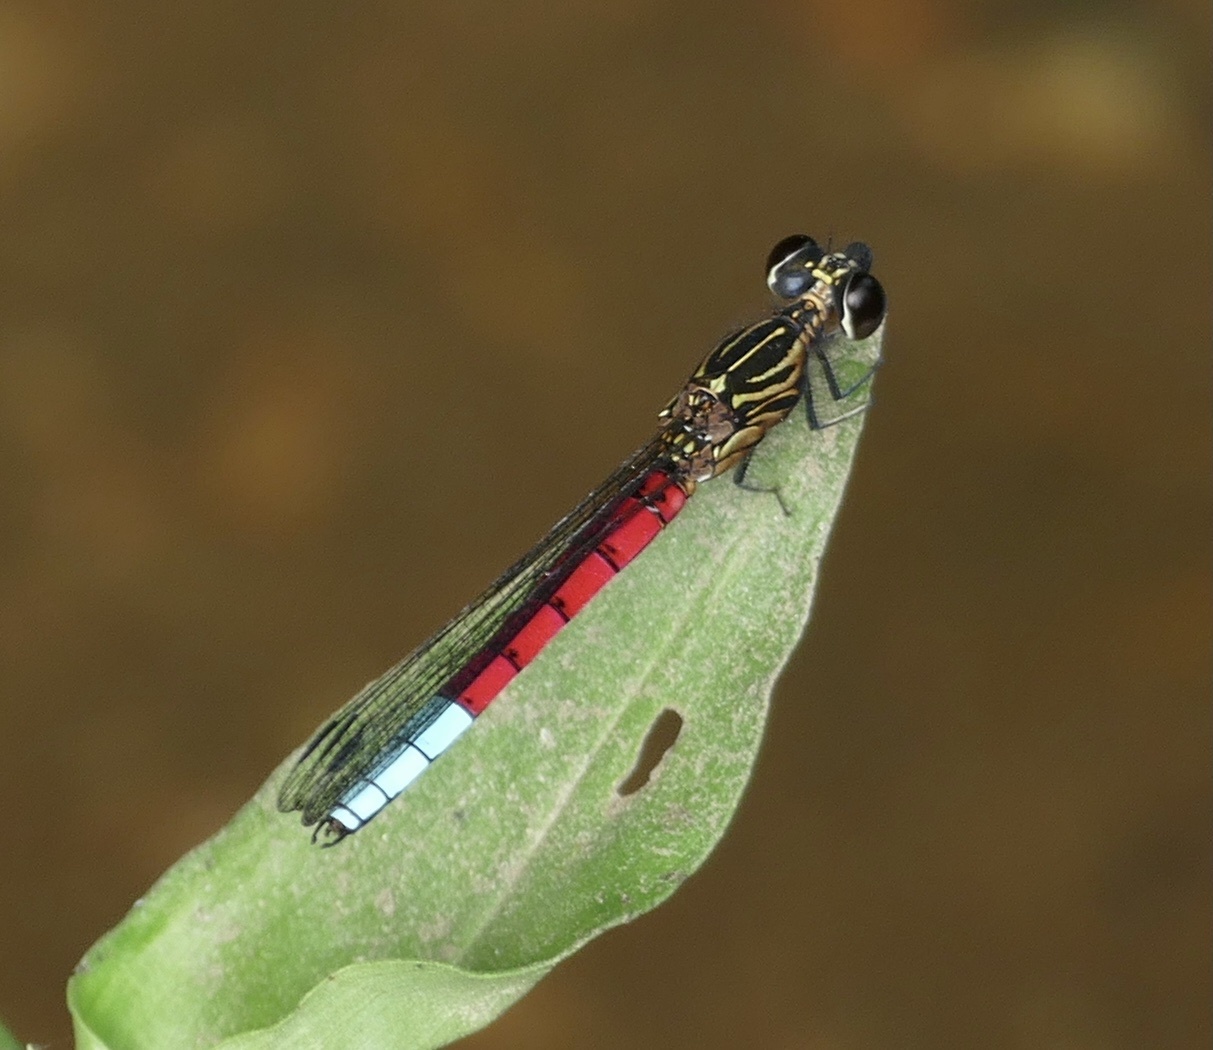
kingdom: Animalia
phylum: Arthropoda
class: Insecta
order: Odonata
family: Chlorocyphidae
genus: Chlorocypha
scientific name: Chlorocypha curta
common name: Blue-tipped jewel
